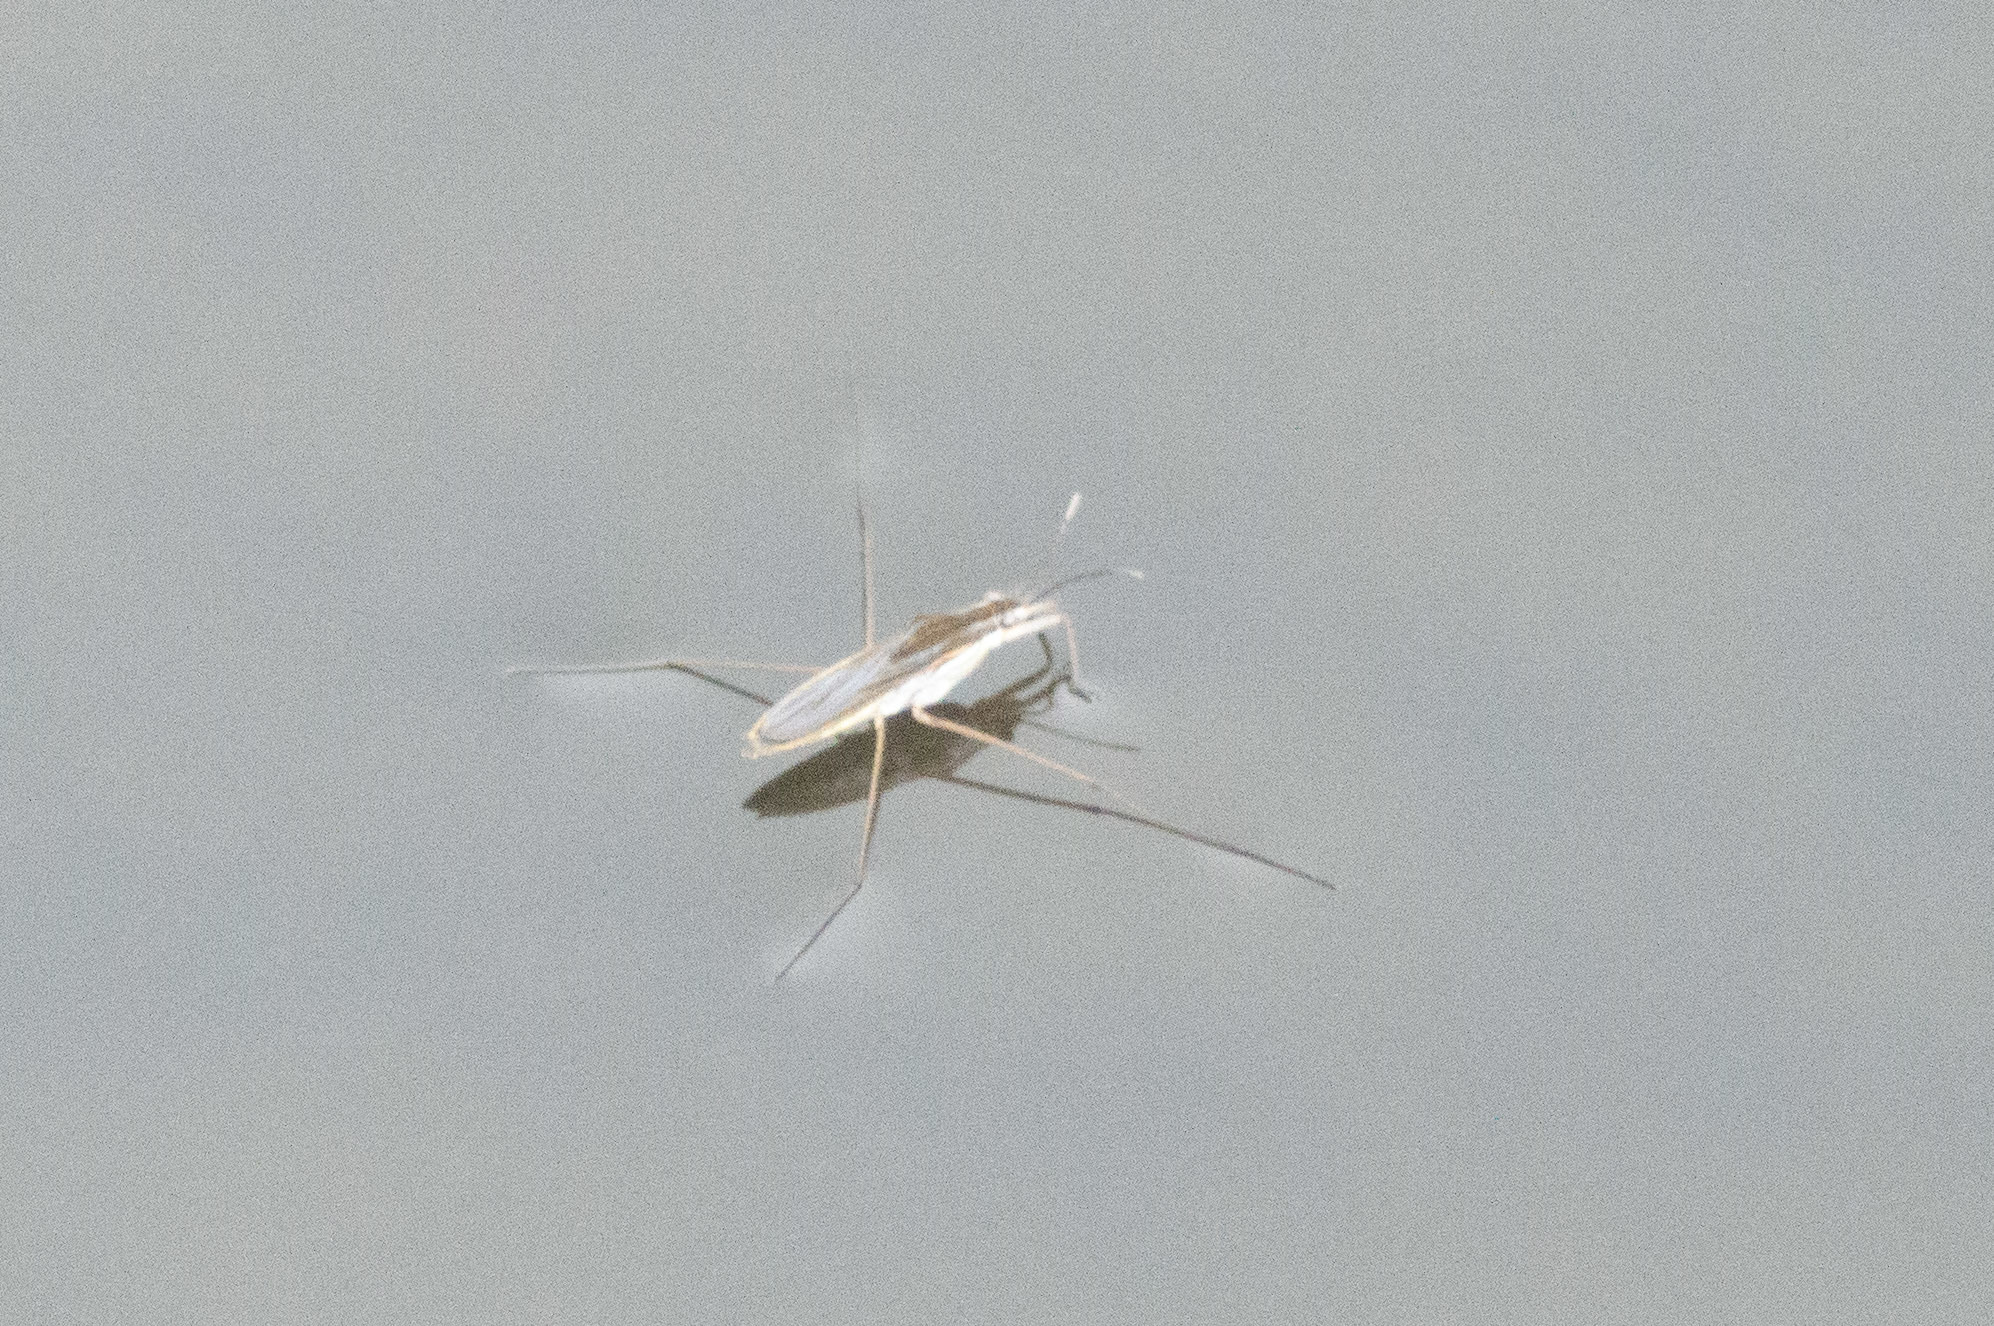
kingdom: Animalia
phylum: Arthropoda
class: Insecta
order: Hemiptera
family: Gerridae
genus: Gerris
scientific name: Gerris
